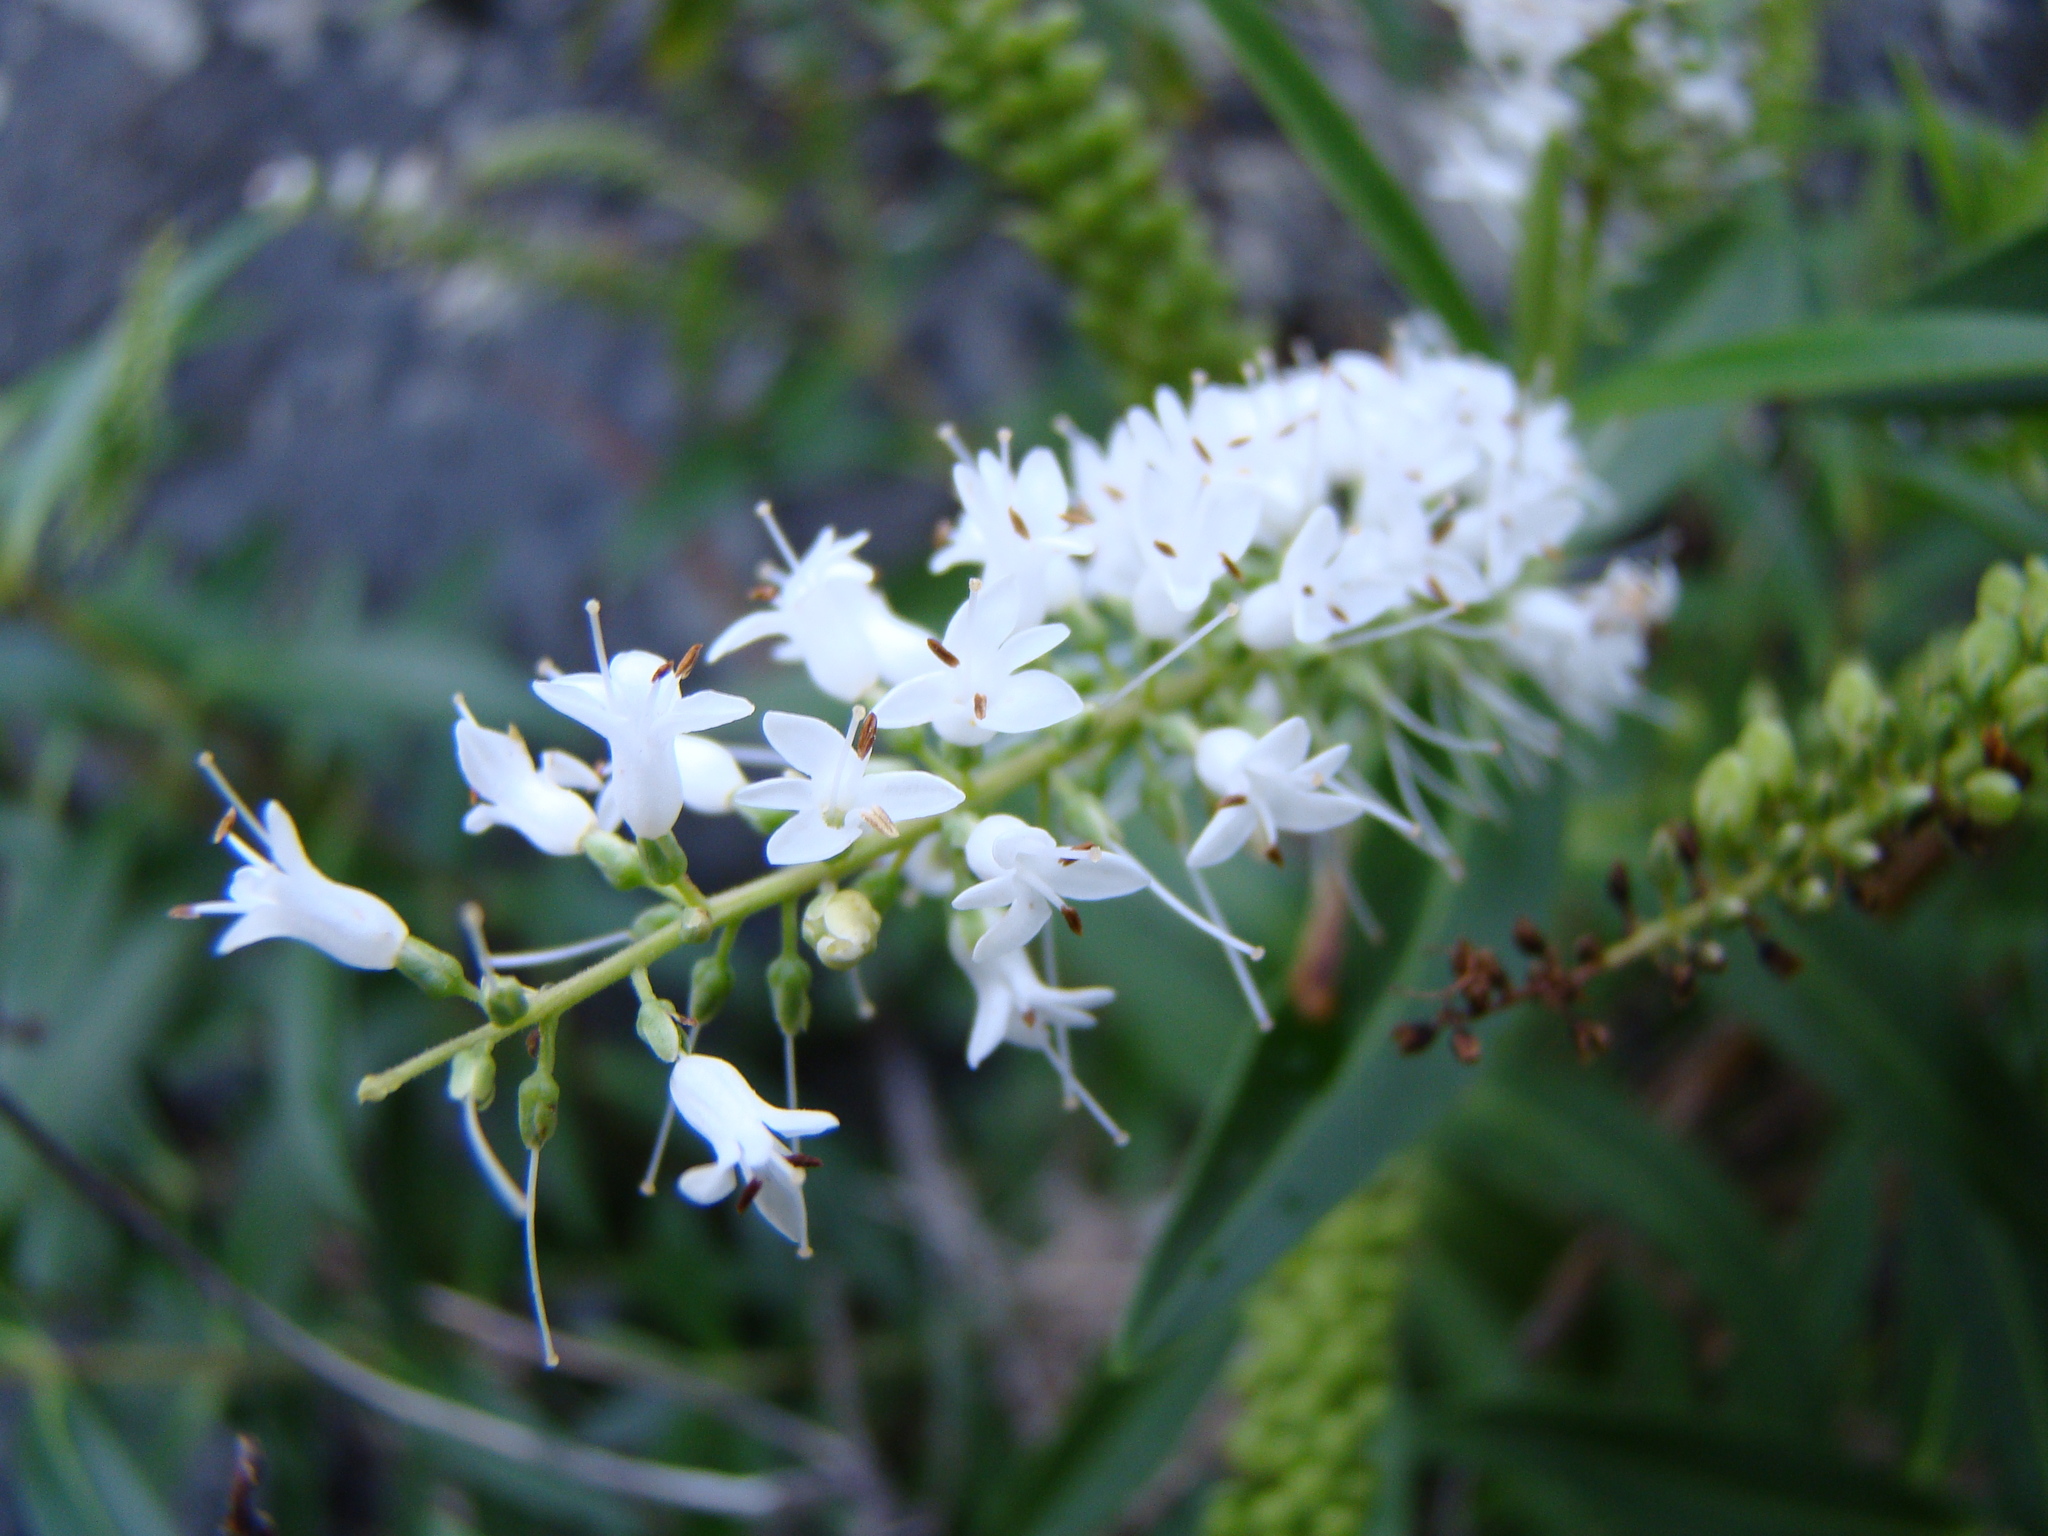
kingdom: Plantae
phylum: Tracheophyta
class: Magnoliopsida
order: Lamiales
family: Plantaginaceae
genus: Veronica
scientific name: Veronica stricta
